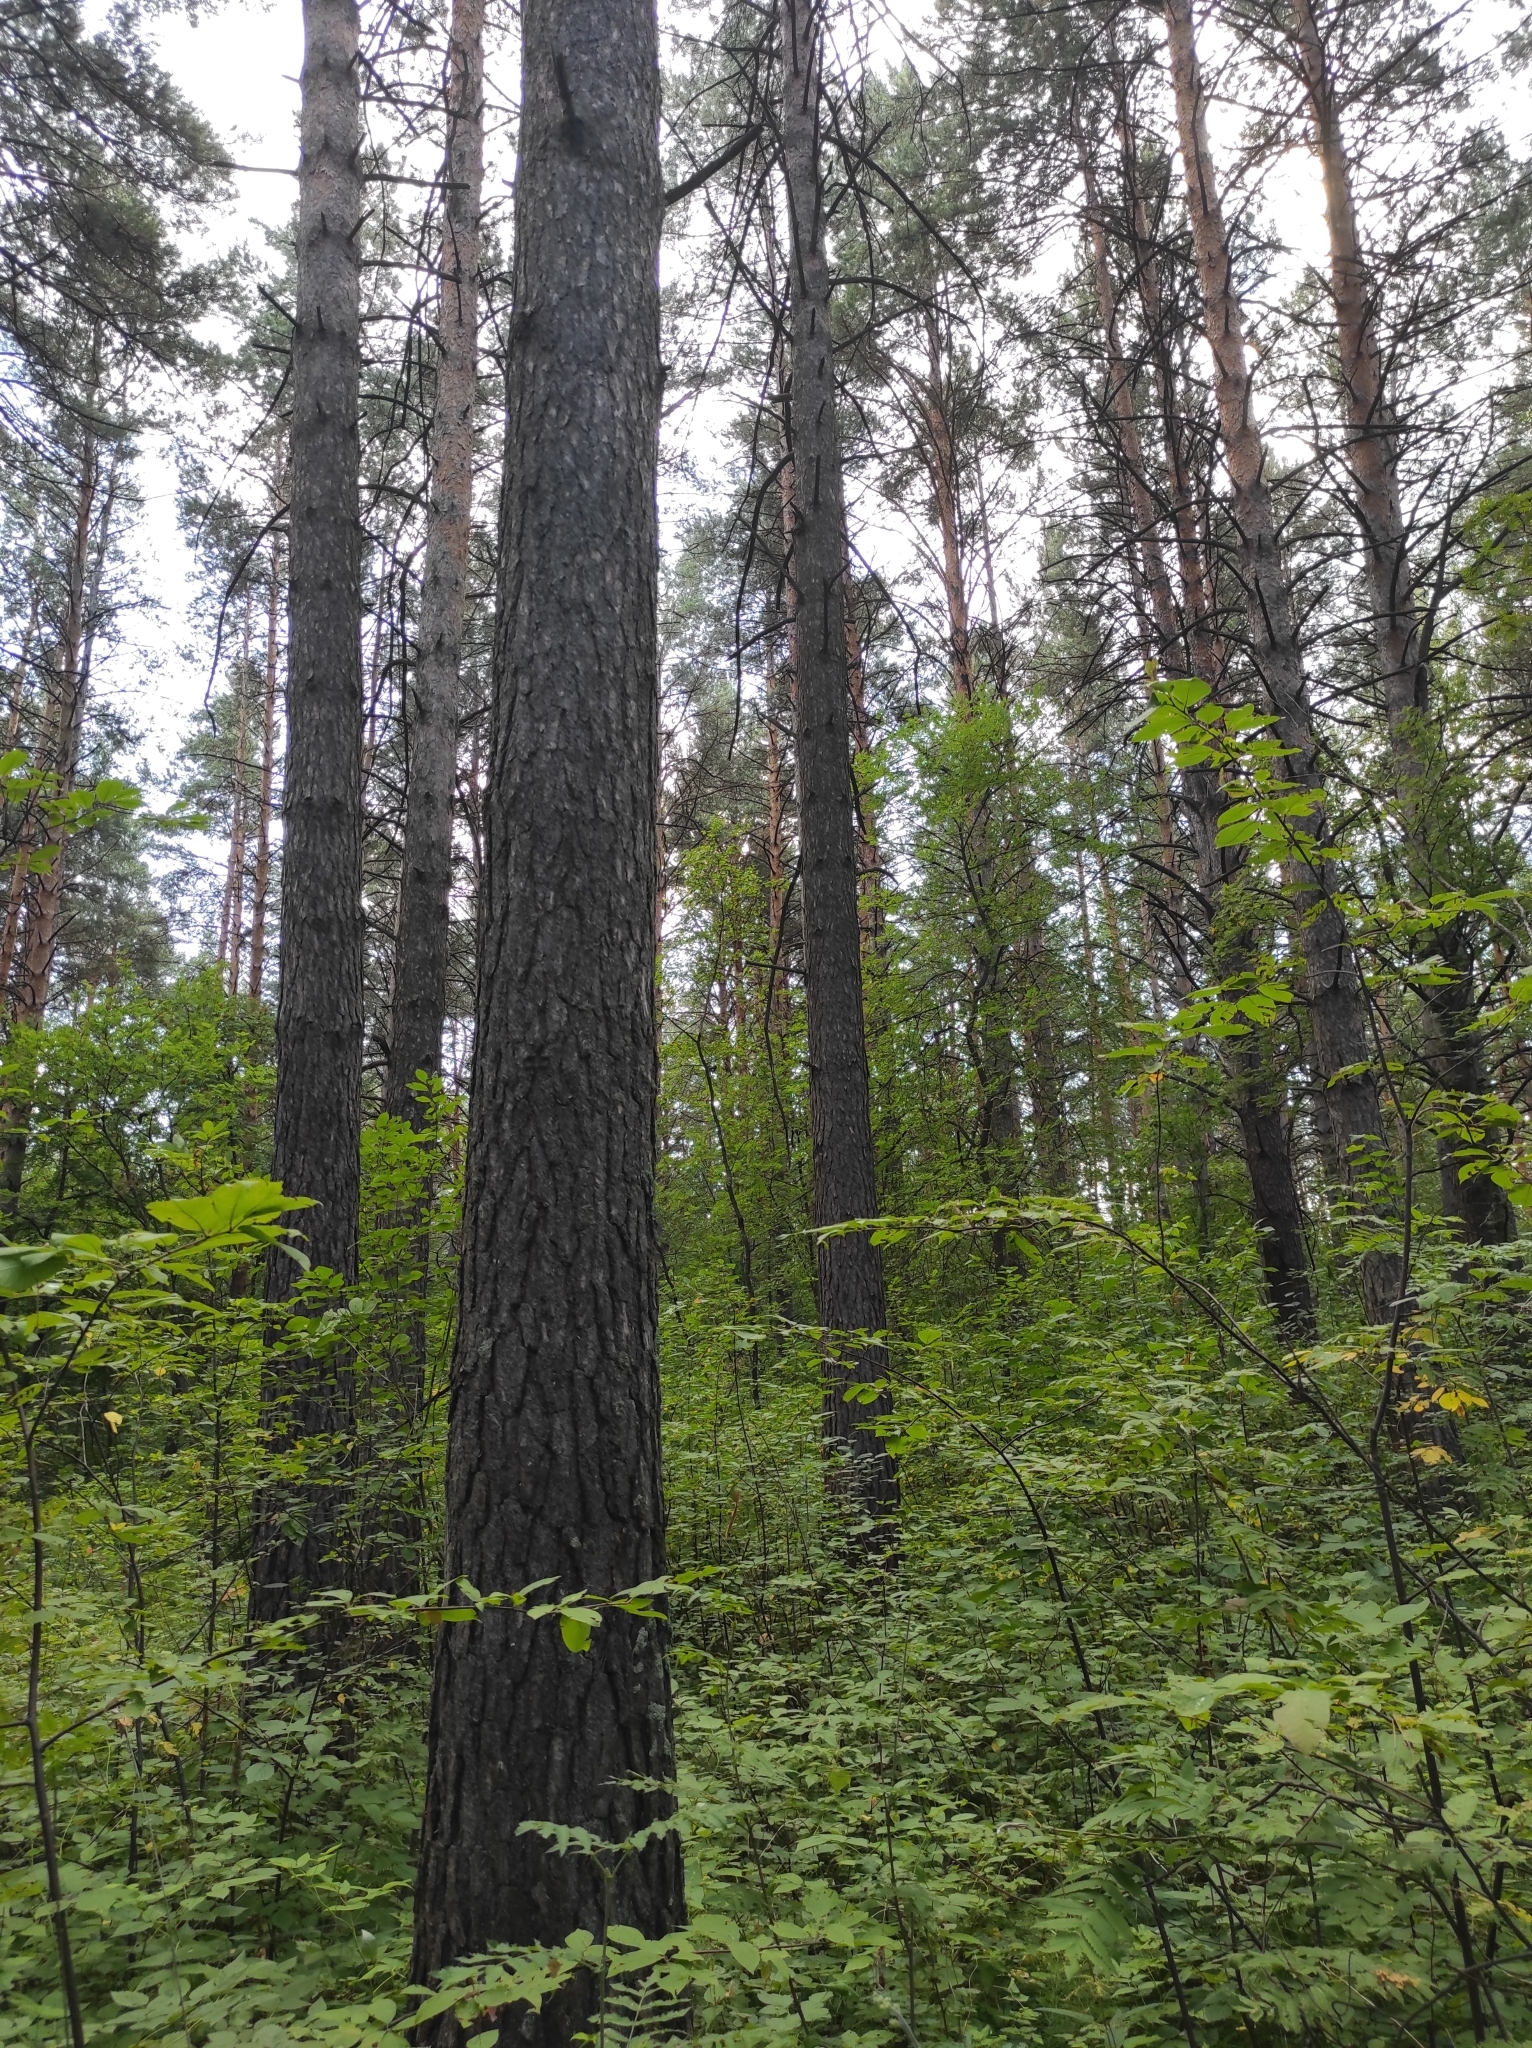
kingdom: Plantae
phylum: Tracheophyta
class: Pinopsida
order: Pinales
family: Pinaceae
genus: Pinus
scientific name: Pinus sylvestris
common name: Scots pine
